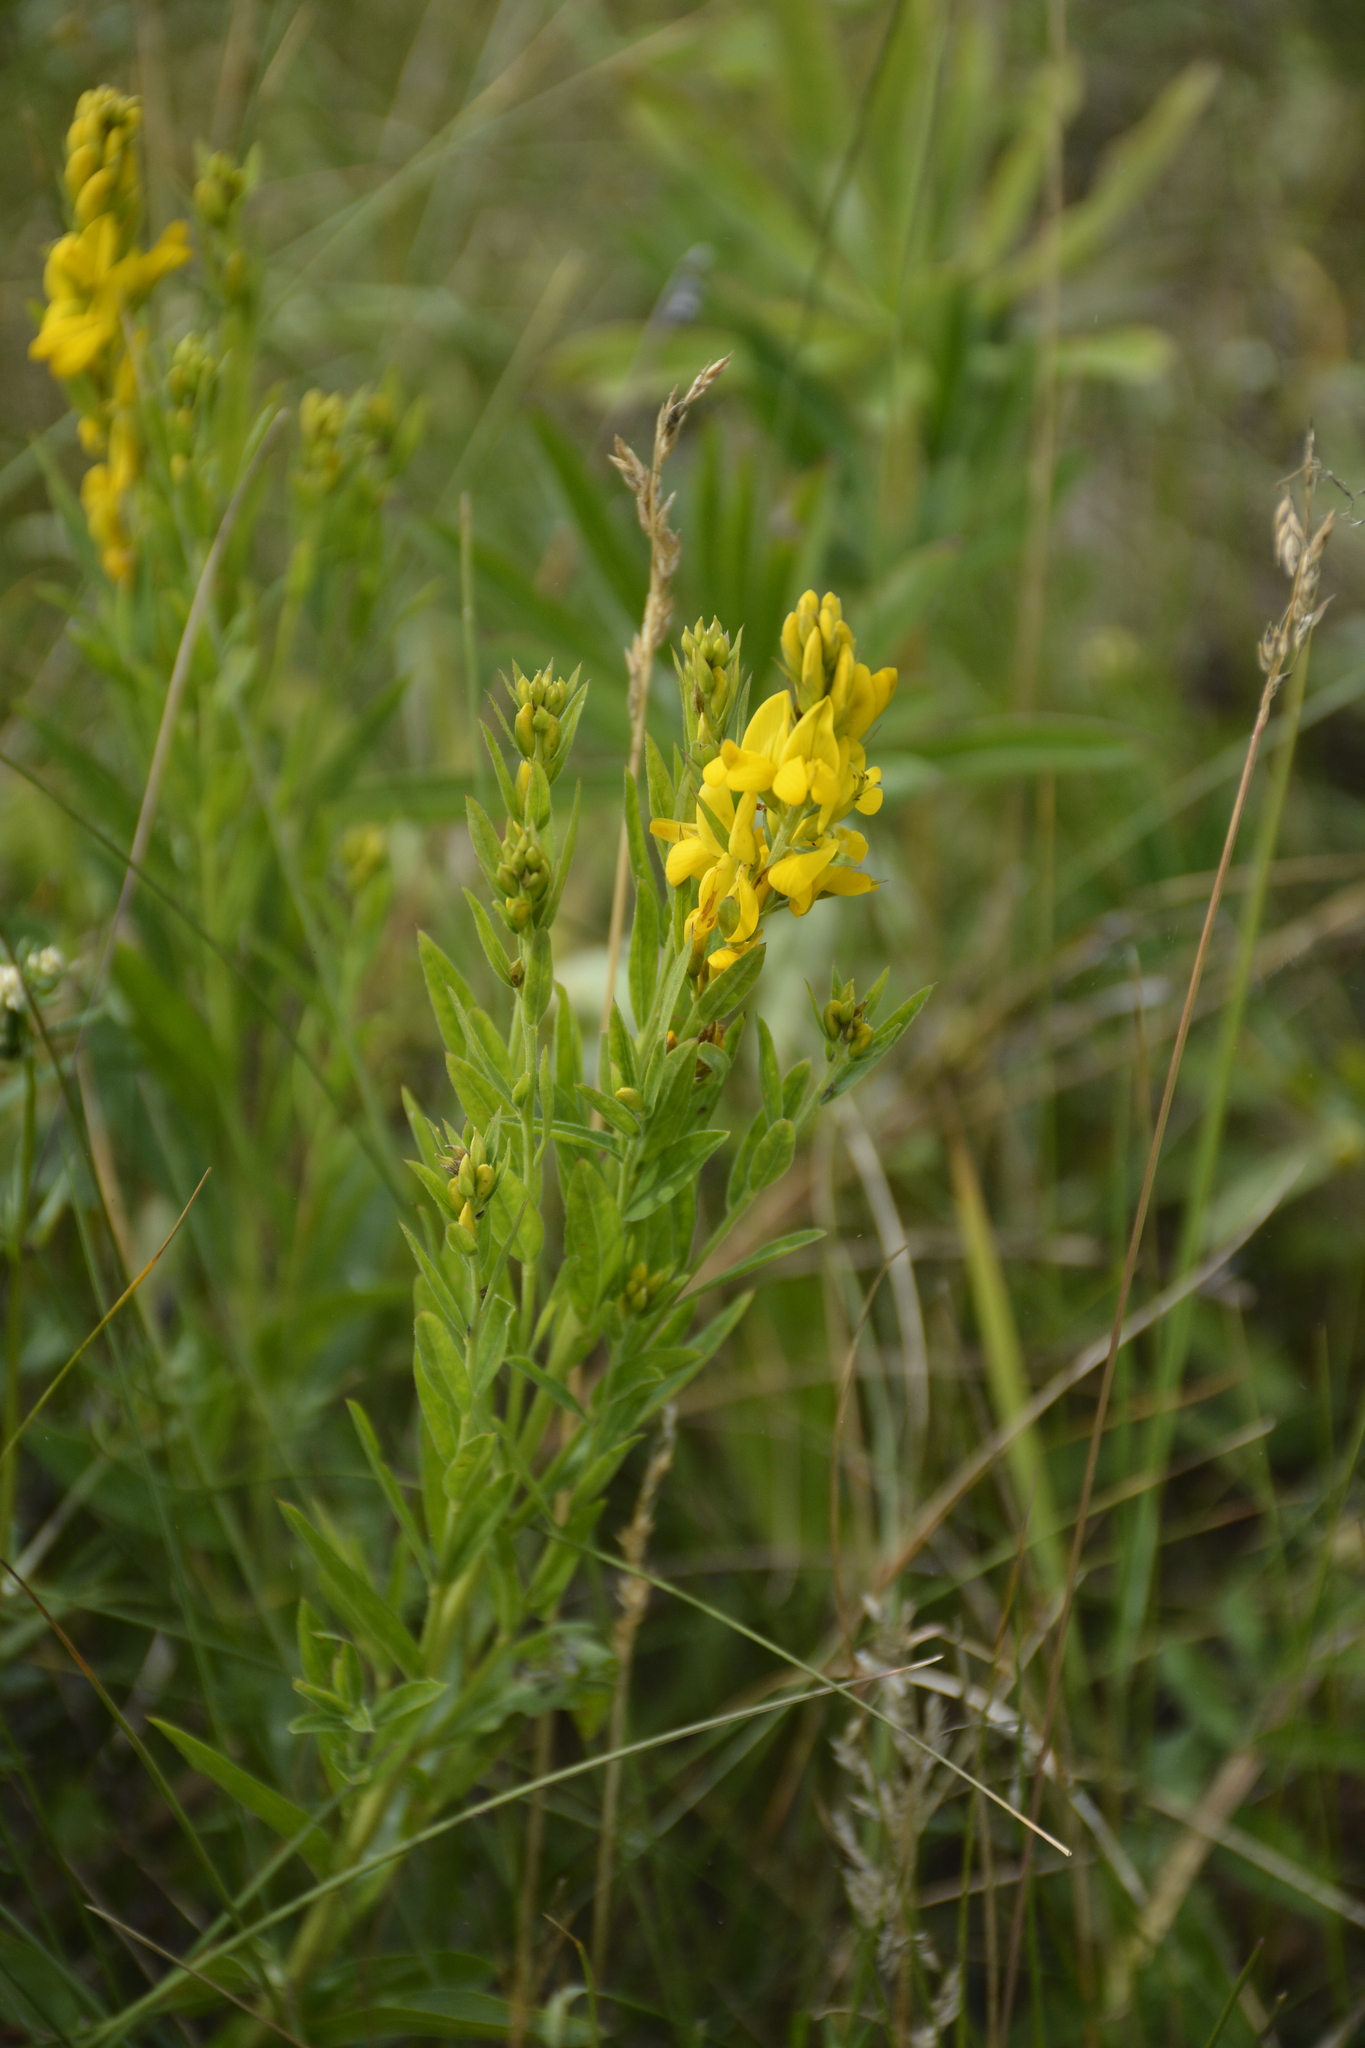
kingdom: Plantae
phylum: Tracheophyta
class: Magnoliopsida
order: Fabales
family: Fabaceae
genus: Genista
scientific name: Genista tinctoria
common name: Dyer's greenweed
